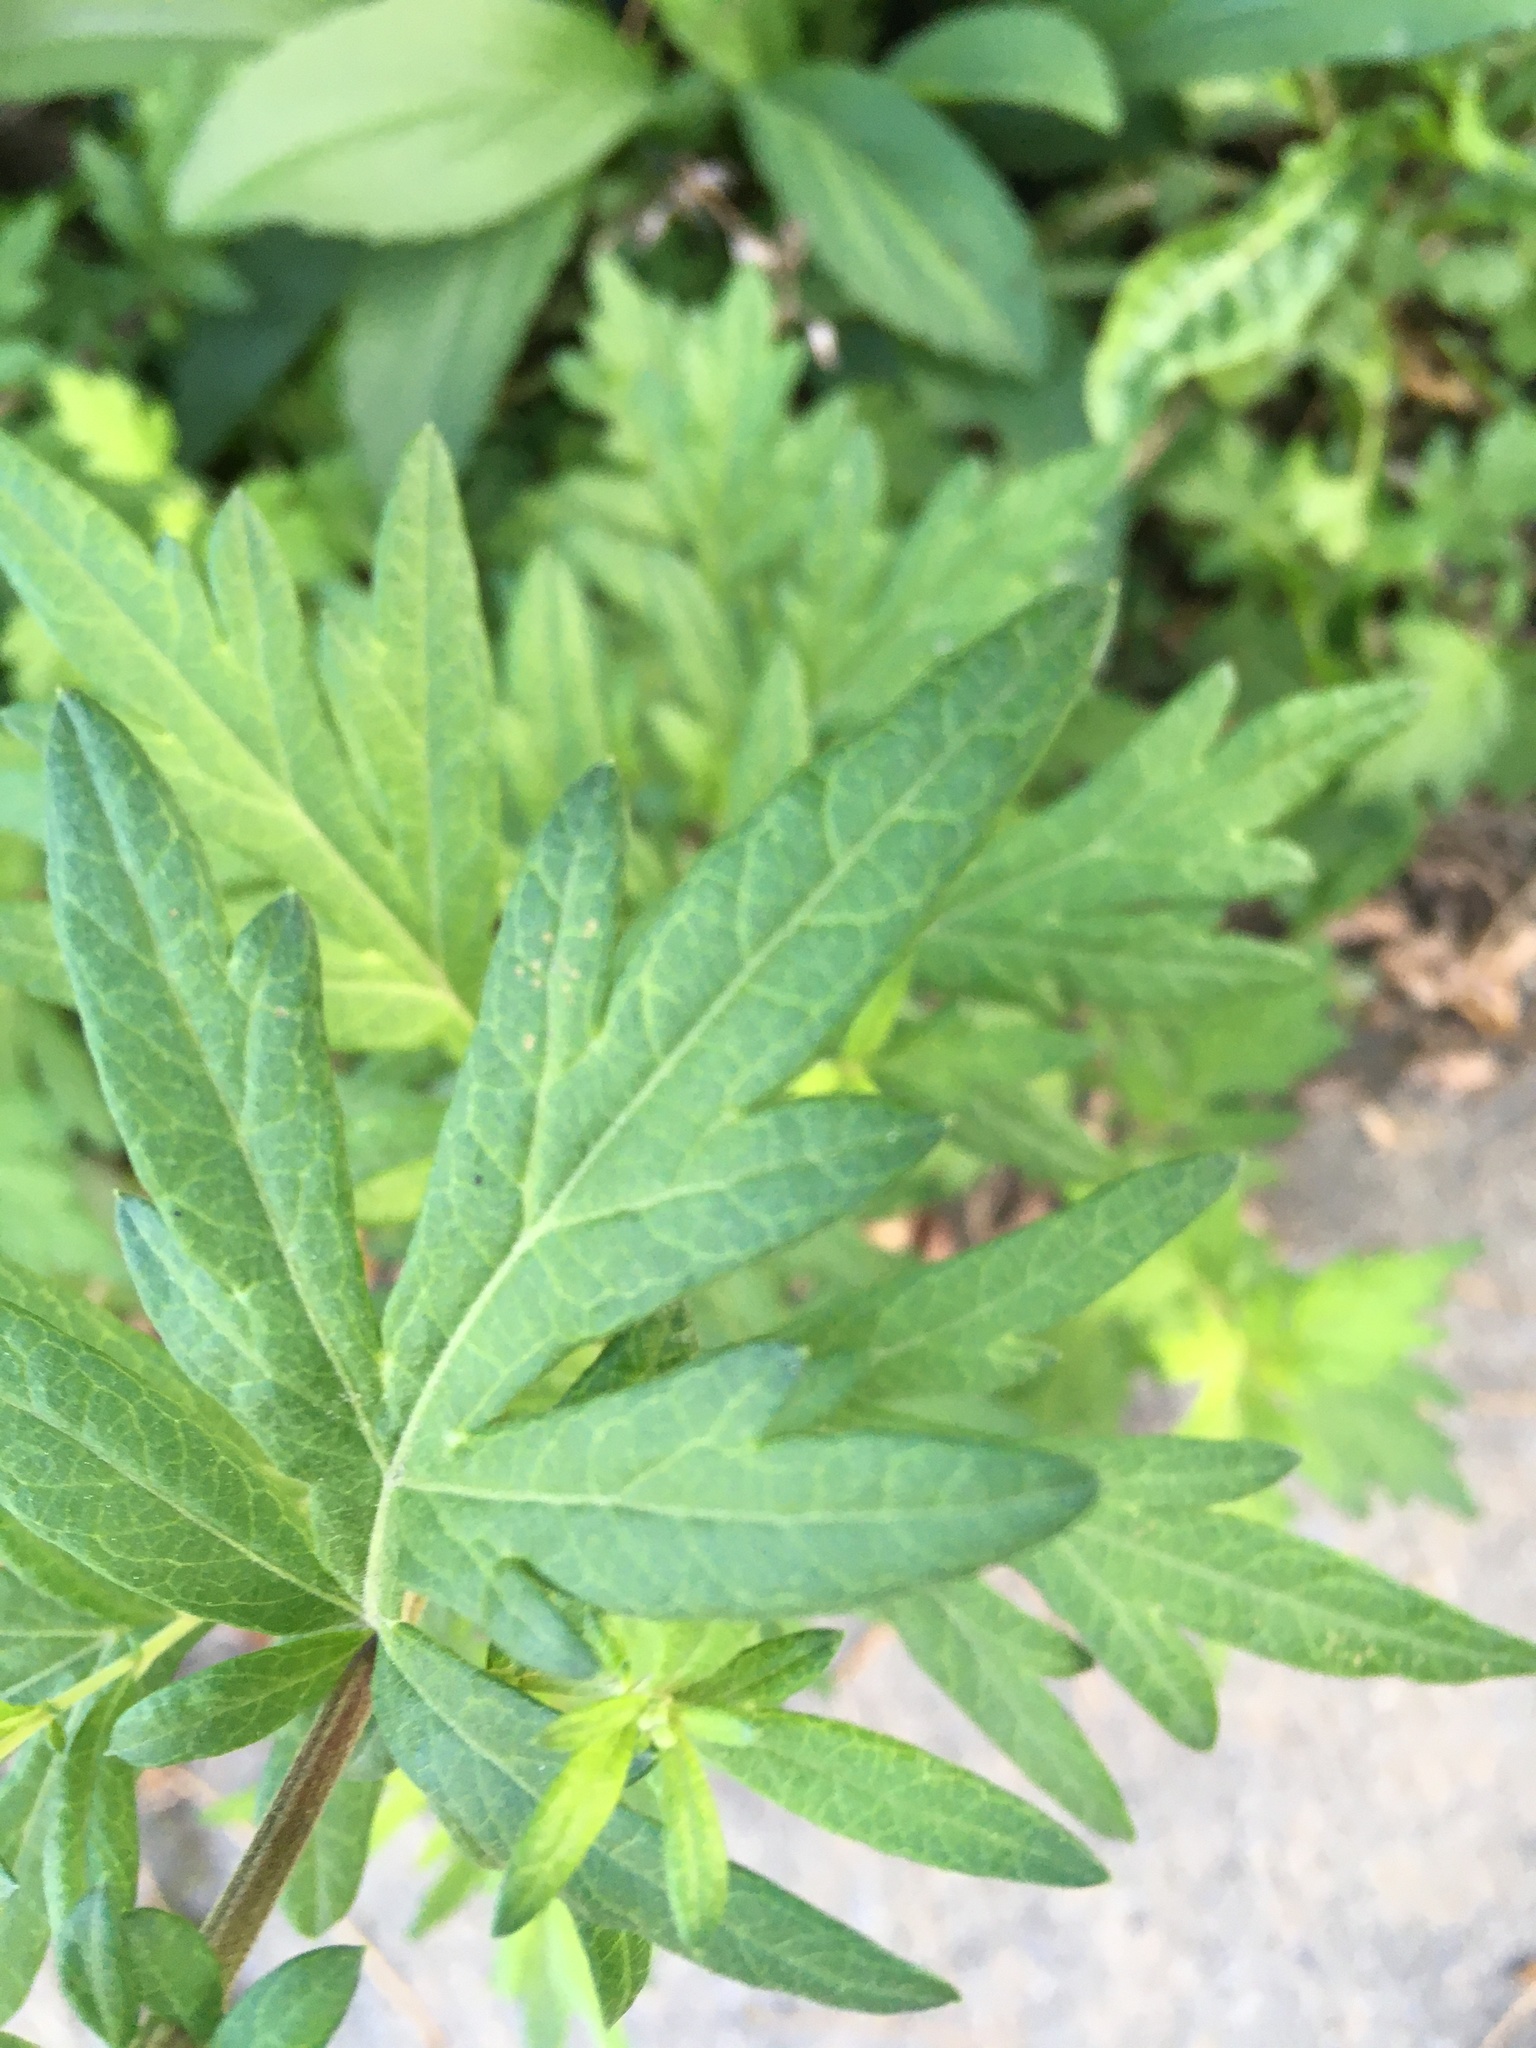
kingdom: Plantae
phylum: Tracheophyta
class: Magnoliopsida
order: Asterales
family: Asteraceae
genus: Artemisia
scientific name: Artemisia vulgaris
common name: Mugwort
